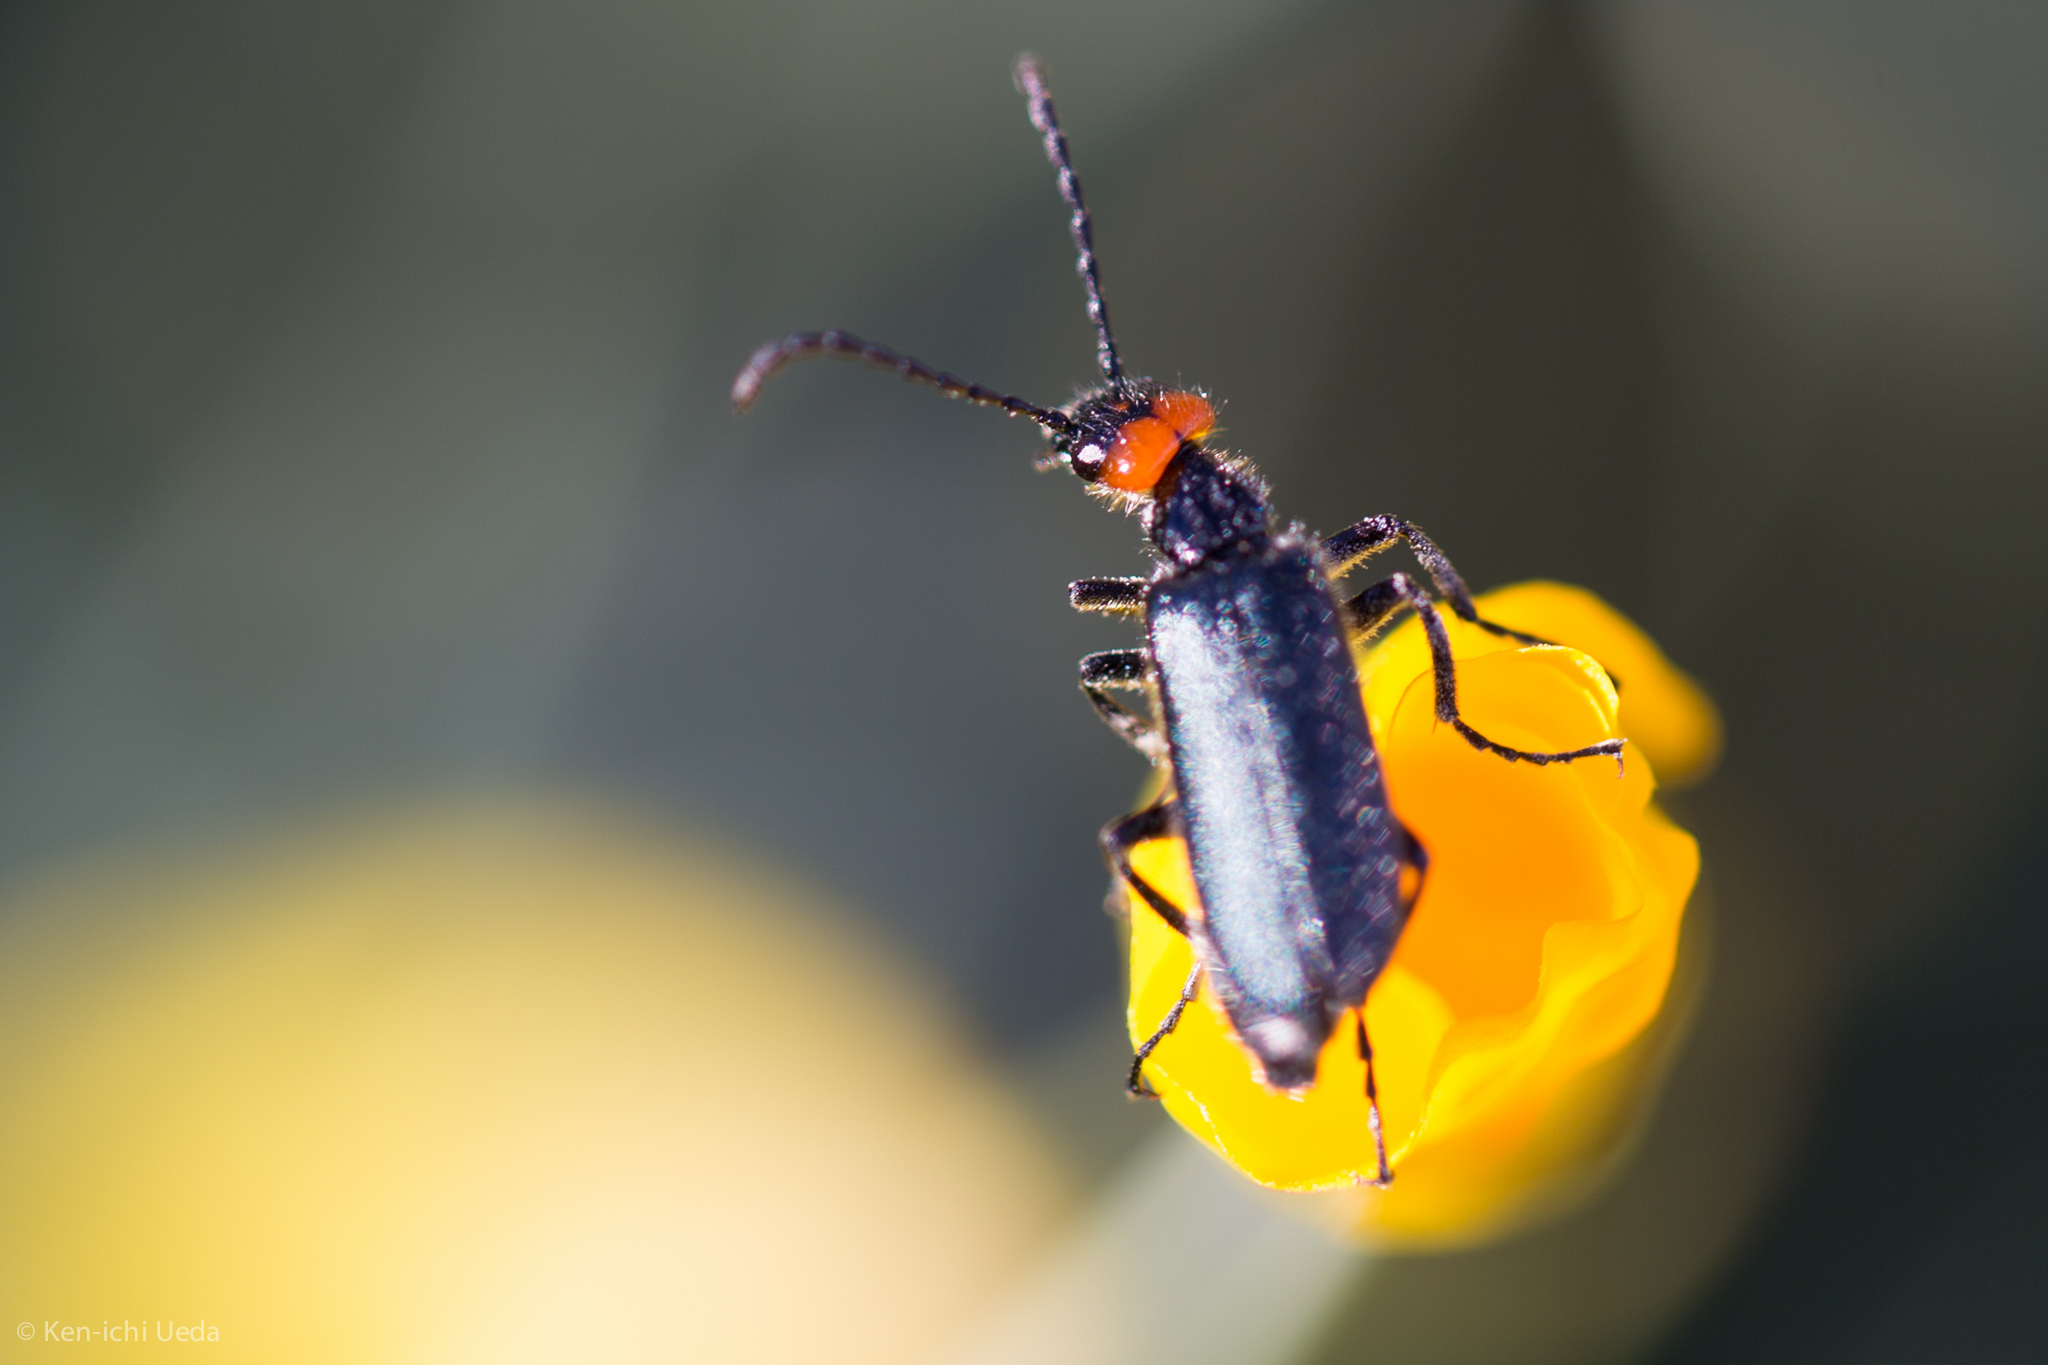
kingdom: Animalia
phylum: Arthropoda
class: Insecta
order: Coleoptera
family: Meloidae
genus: Lytta
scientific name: Lytta auriculata
